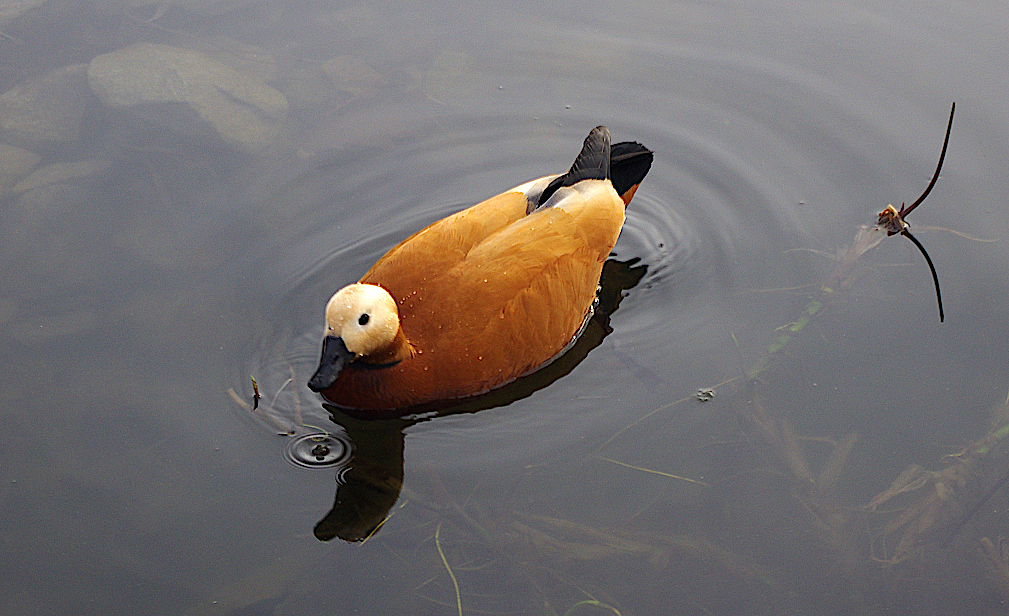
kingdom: Animalia
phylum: Chordata
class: Aves
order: Anseriformes
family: Anatidae
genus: Tadorna
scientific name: Tadorna ferruginea
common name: Ruddy shelduck
